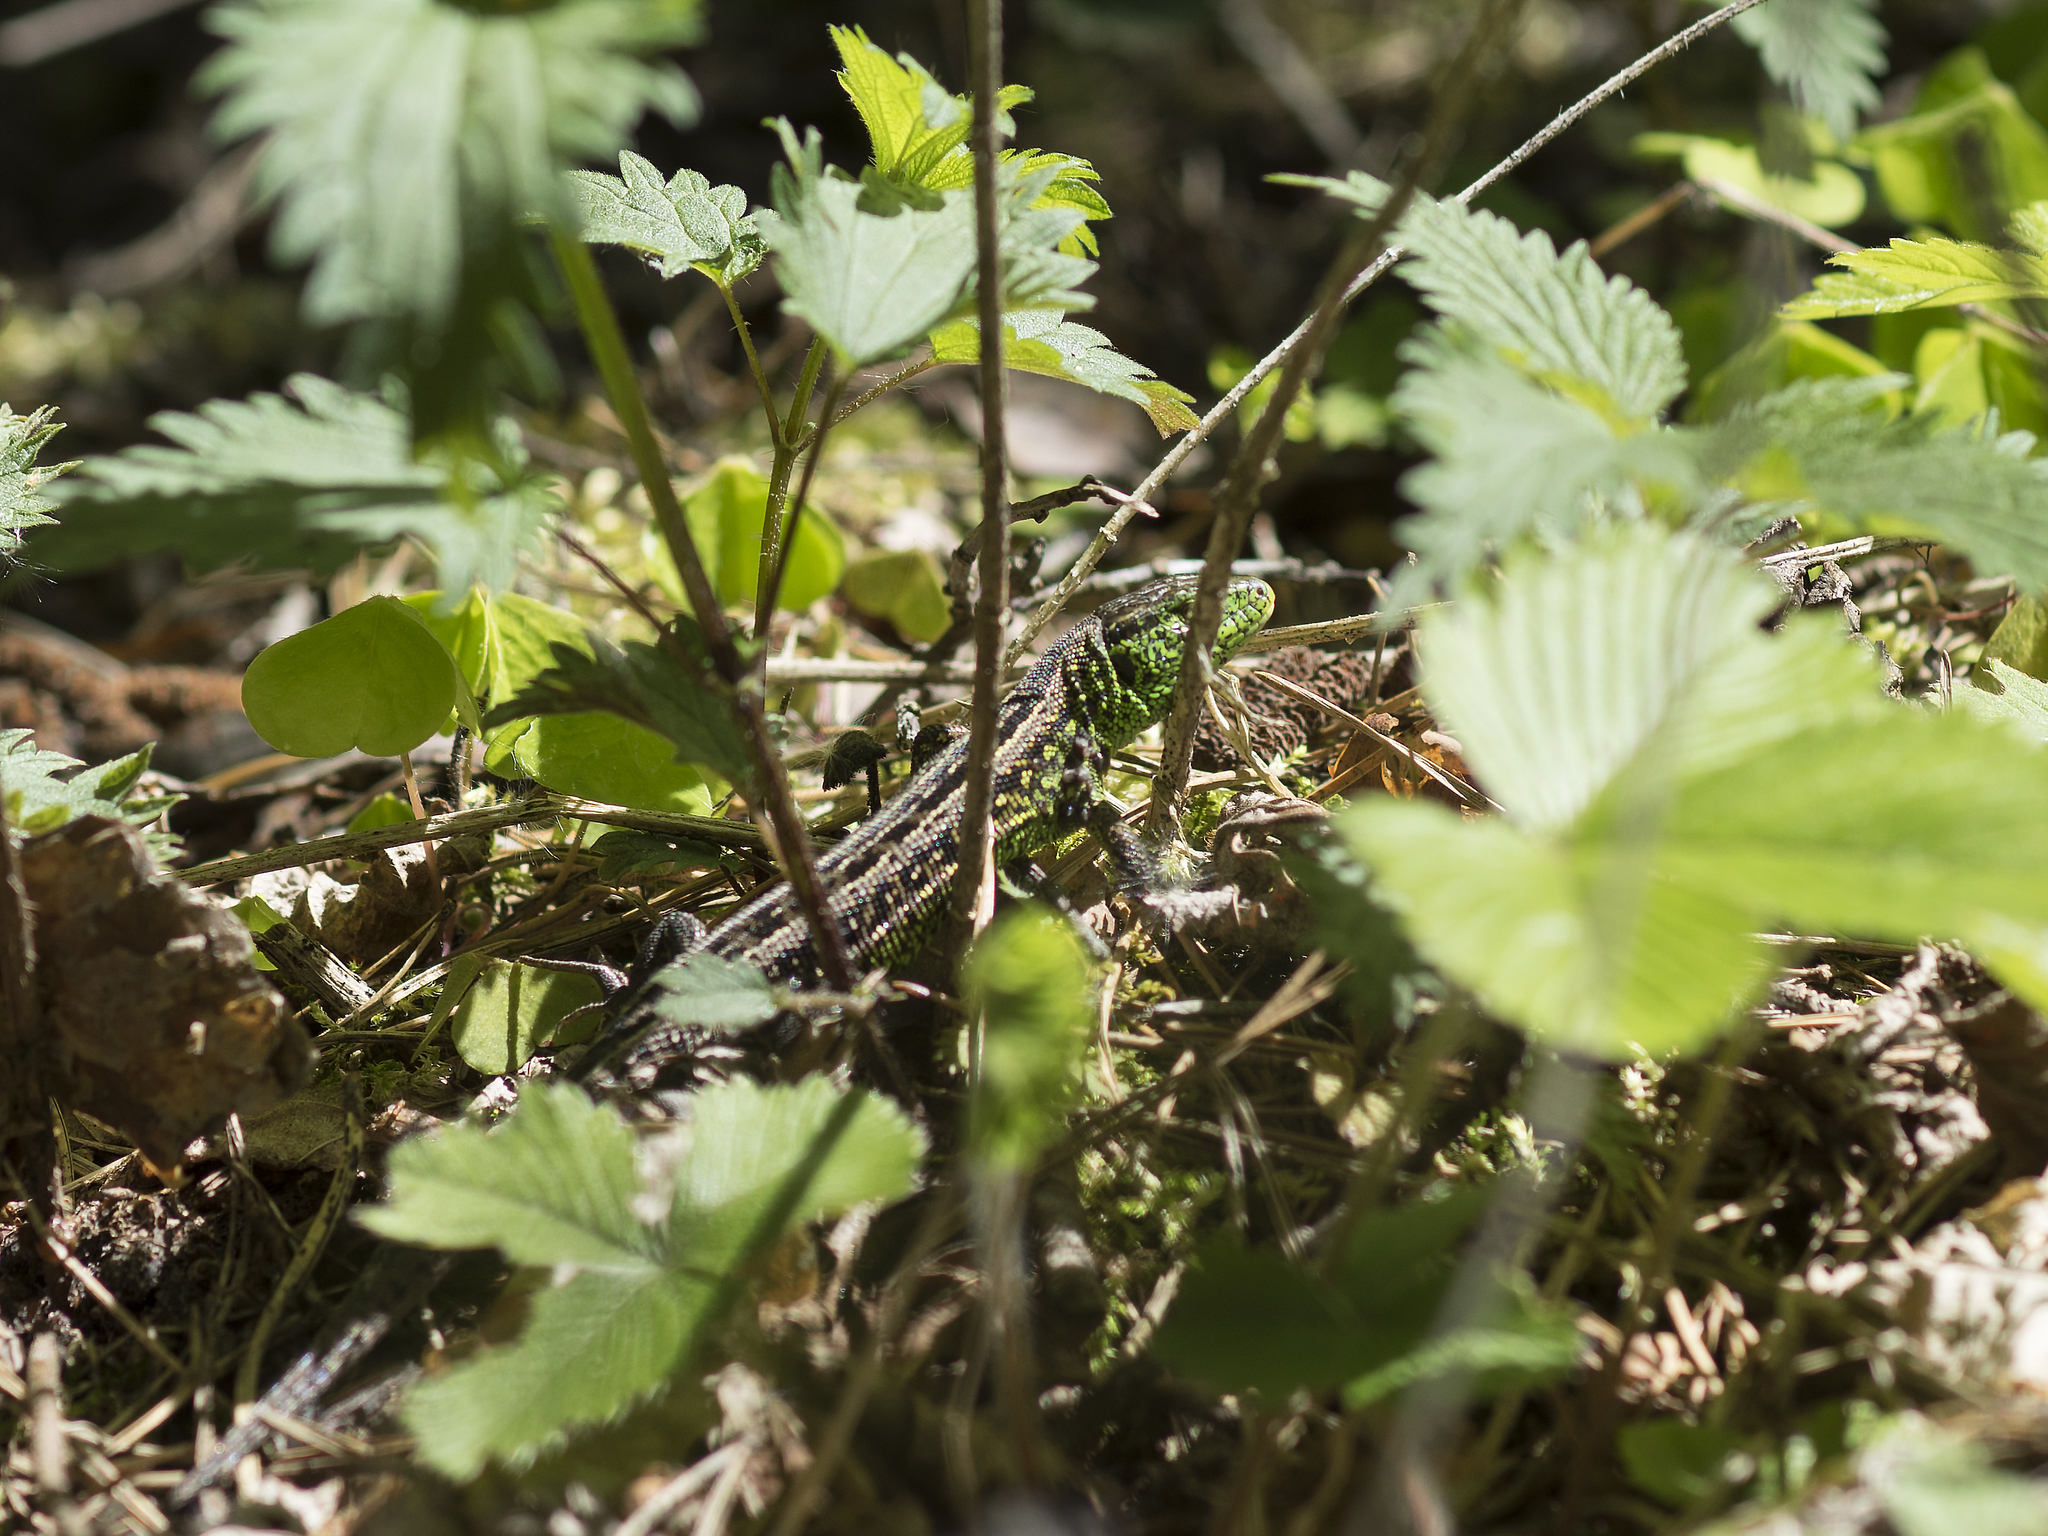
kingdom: Animalia
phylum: Chordata
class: Squamata
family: Lacertidae
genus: Lacerta
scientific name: Lacerta agilis
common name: Sand lizard
